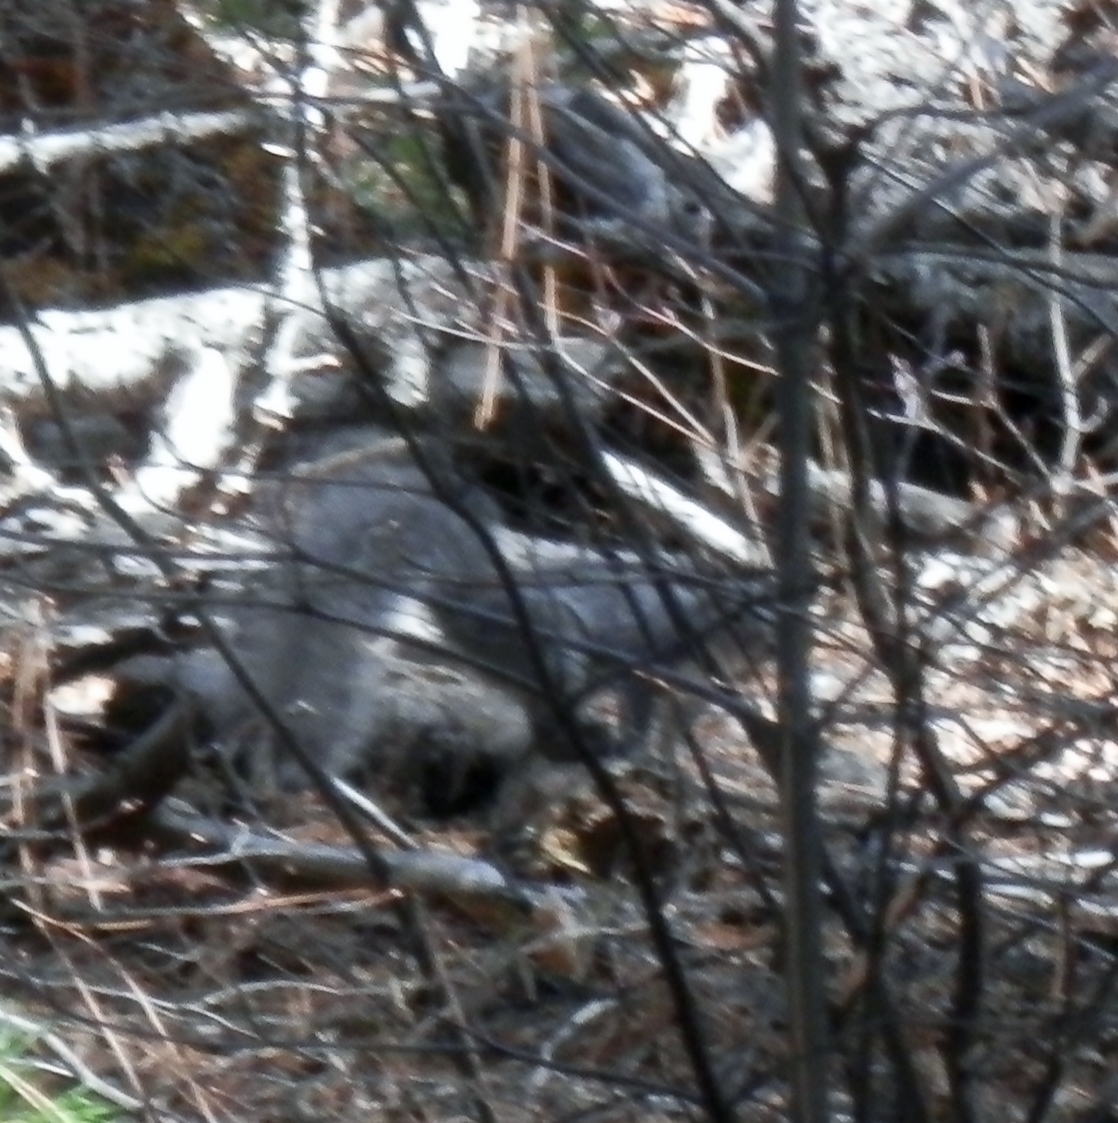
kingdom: Animalia
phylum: Chordata
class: Mammalia
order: Rodentia
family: Sciuridae
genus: Sciurus
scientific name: Sciurus griseus
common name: Western gray squirrel
